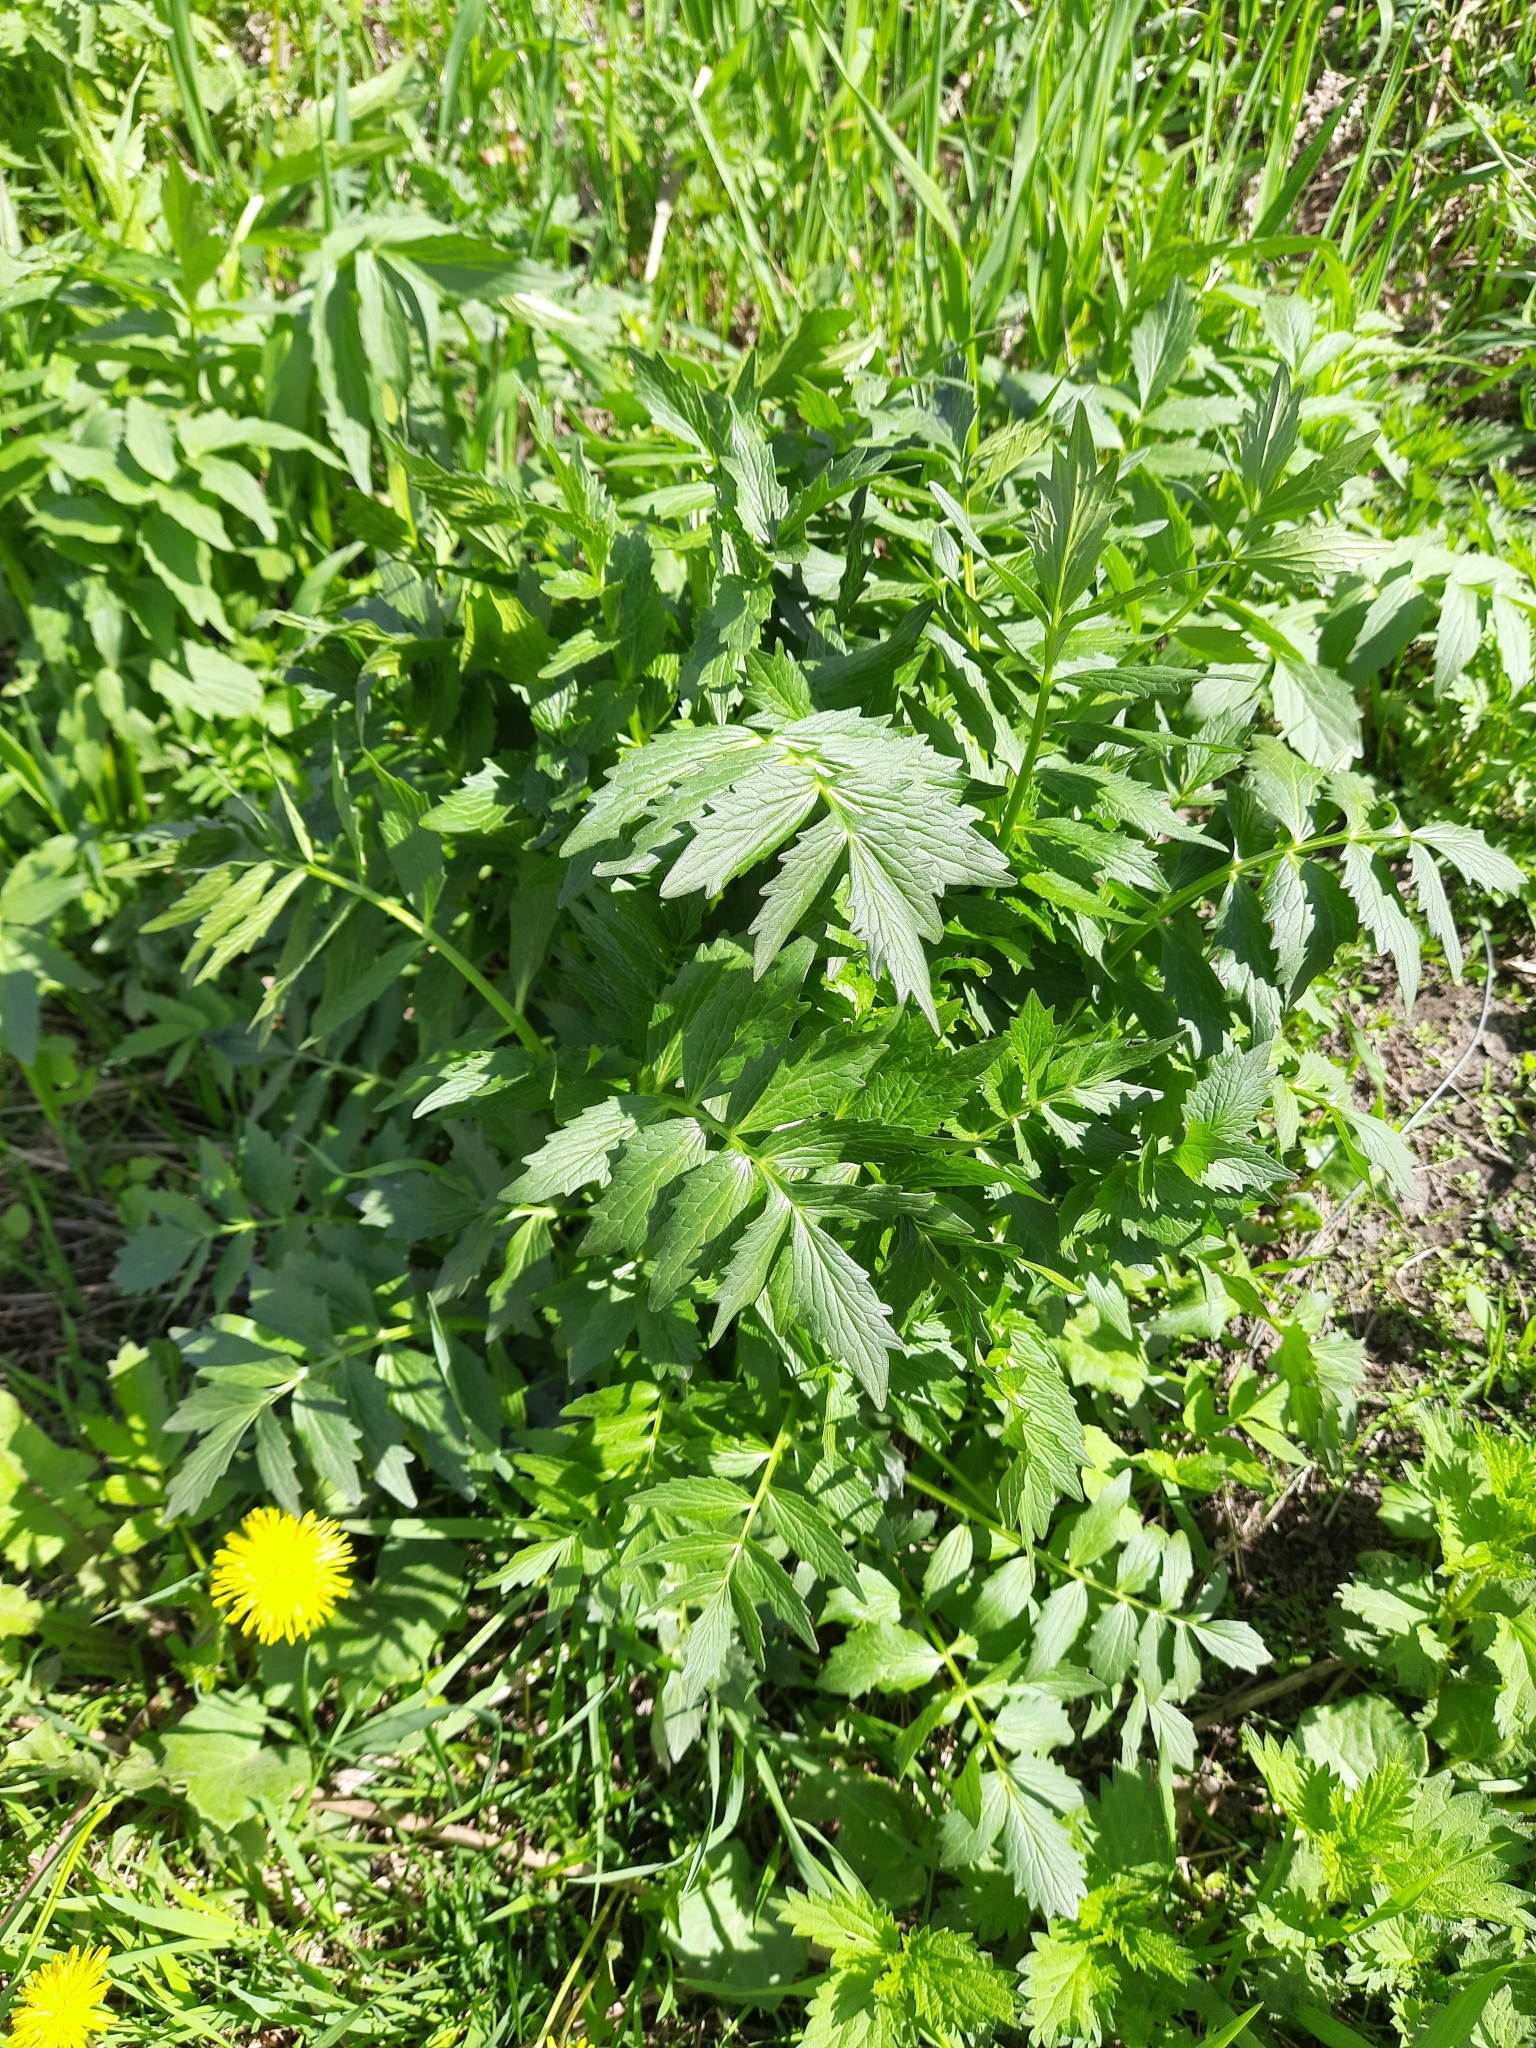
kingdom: Plantae
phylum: Tracheophyta
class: Magnoliopsida
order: Dipsacales
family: Caprifoliaceae
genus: Valeriana
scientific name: Valeriana wolgensis
